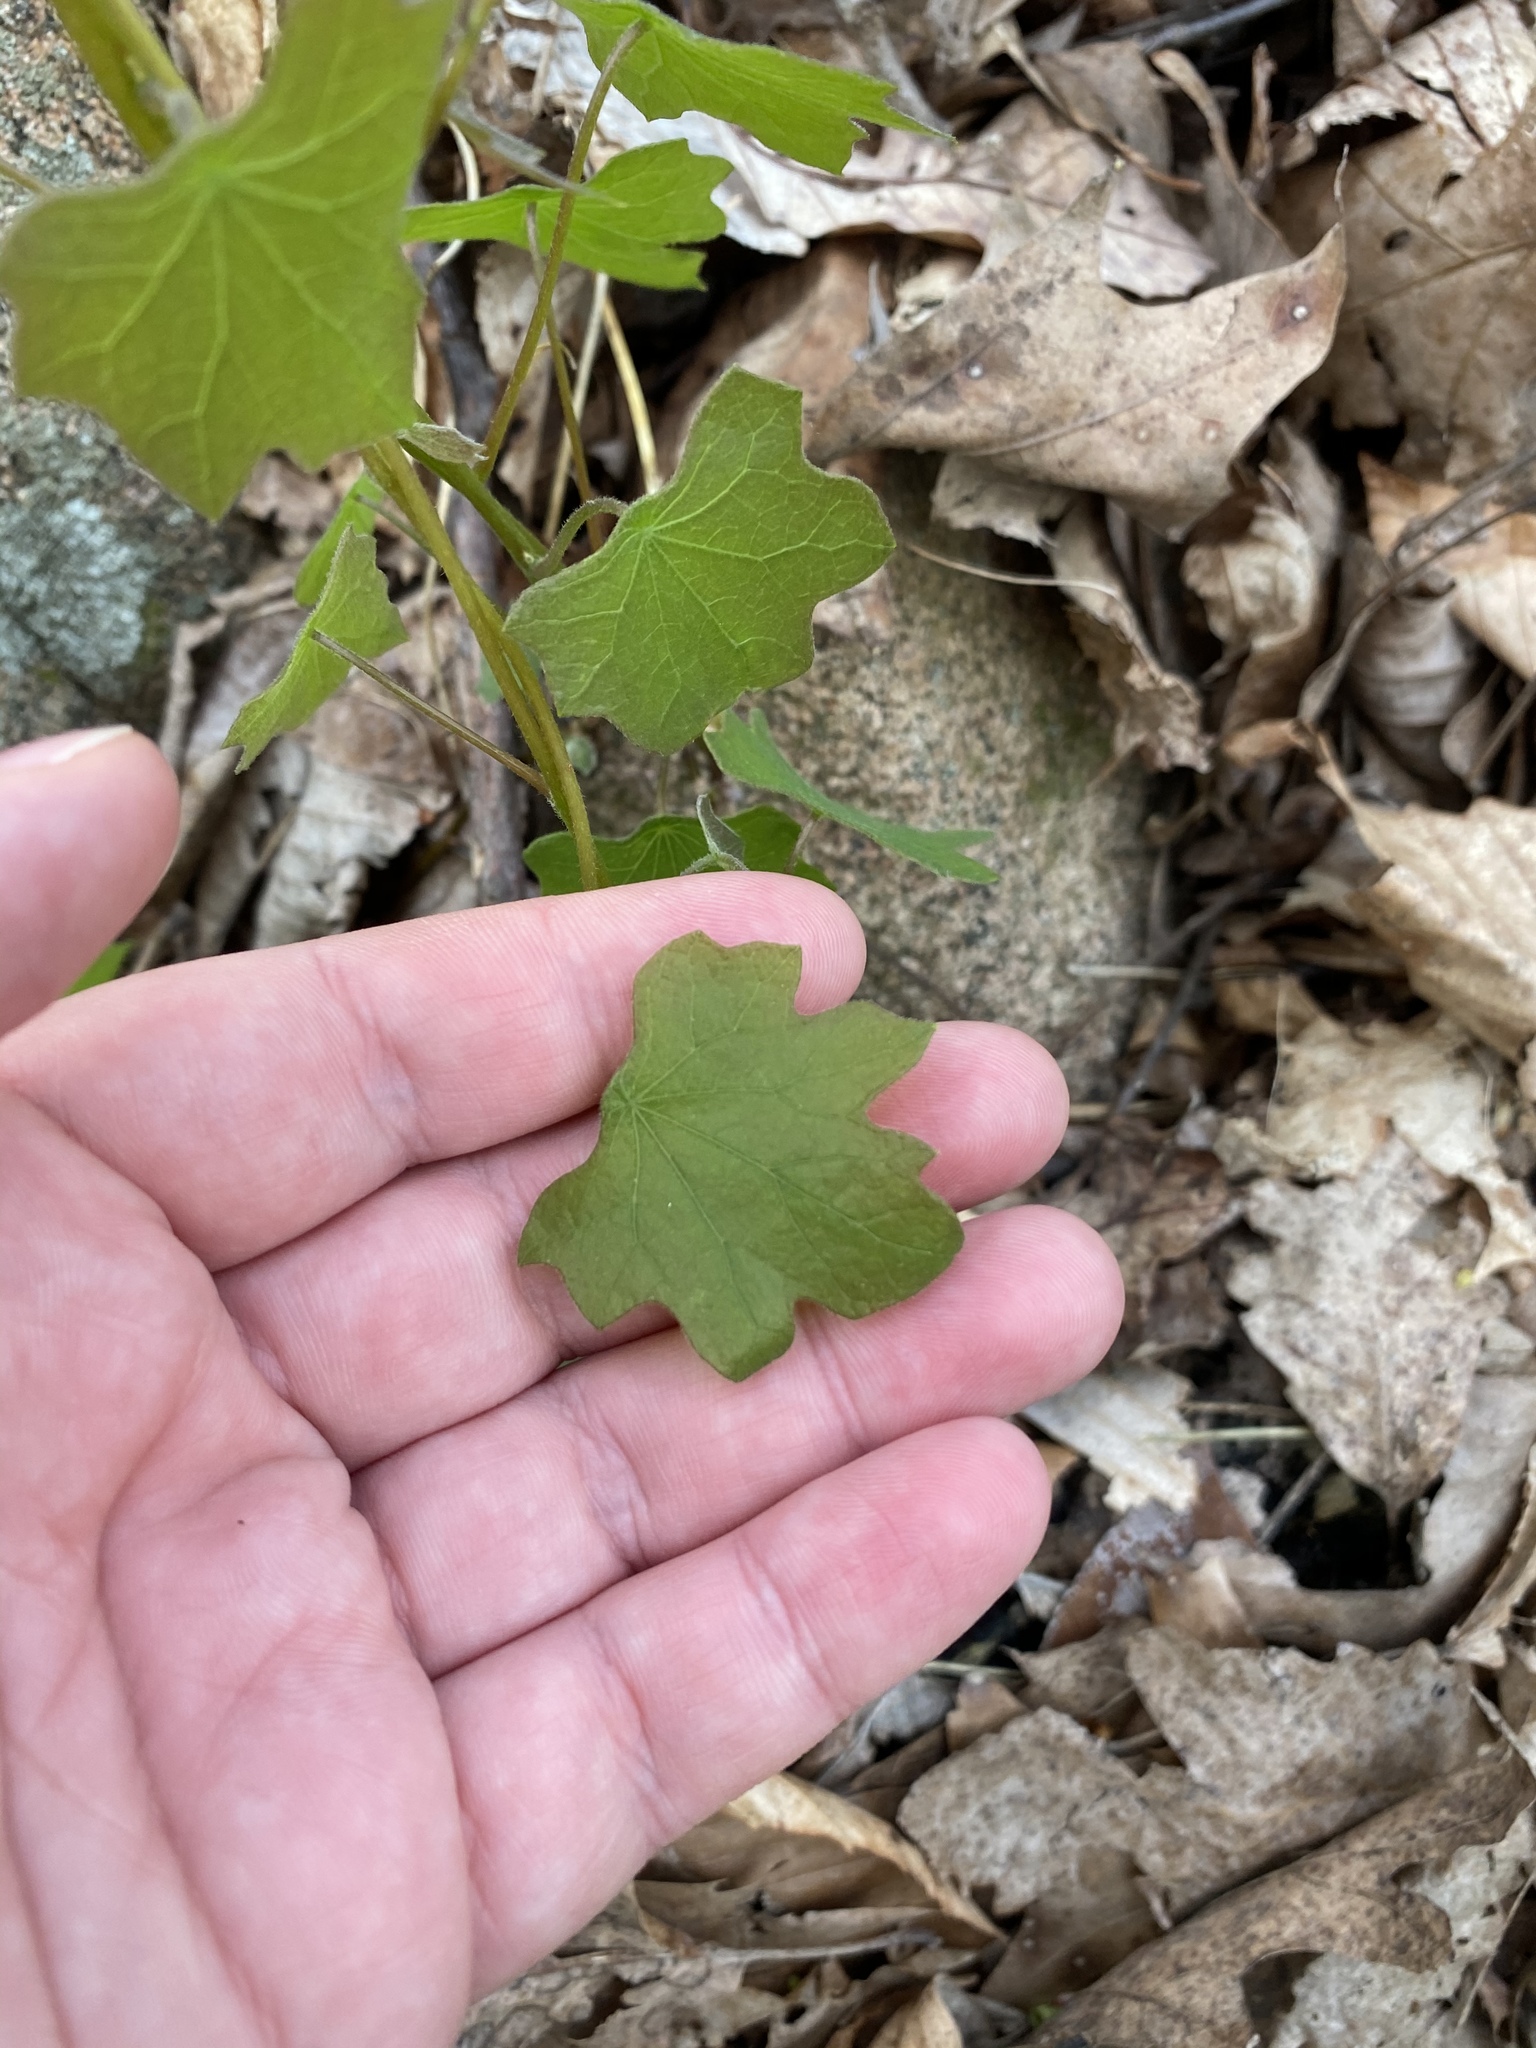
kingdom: Plantae
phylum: Tracheophyta
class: Magnoliopsida
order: Ranunculales
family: Menispermaceae
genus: Menispermum
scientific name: Menispermum canadense
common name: Moonseed
